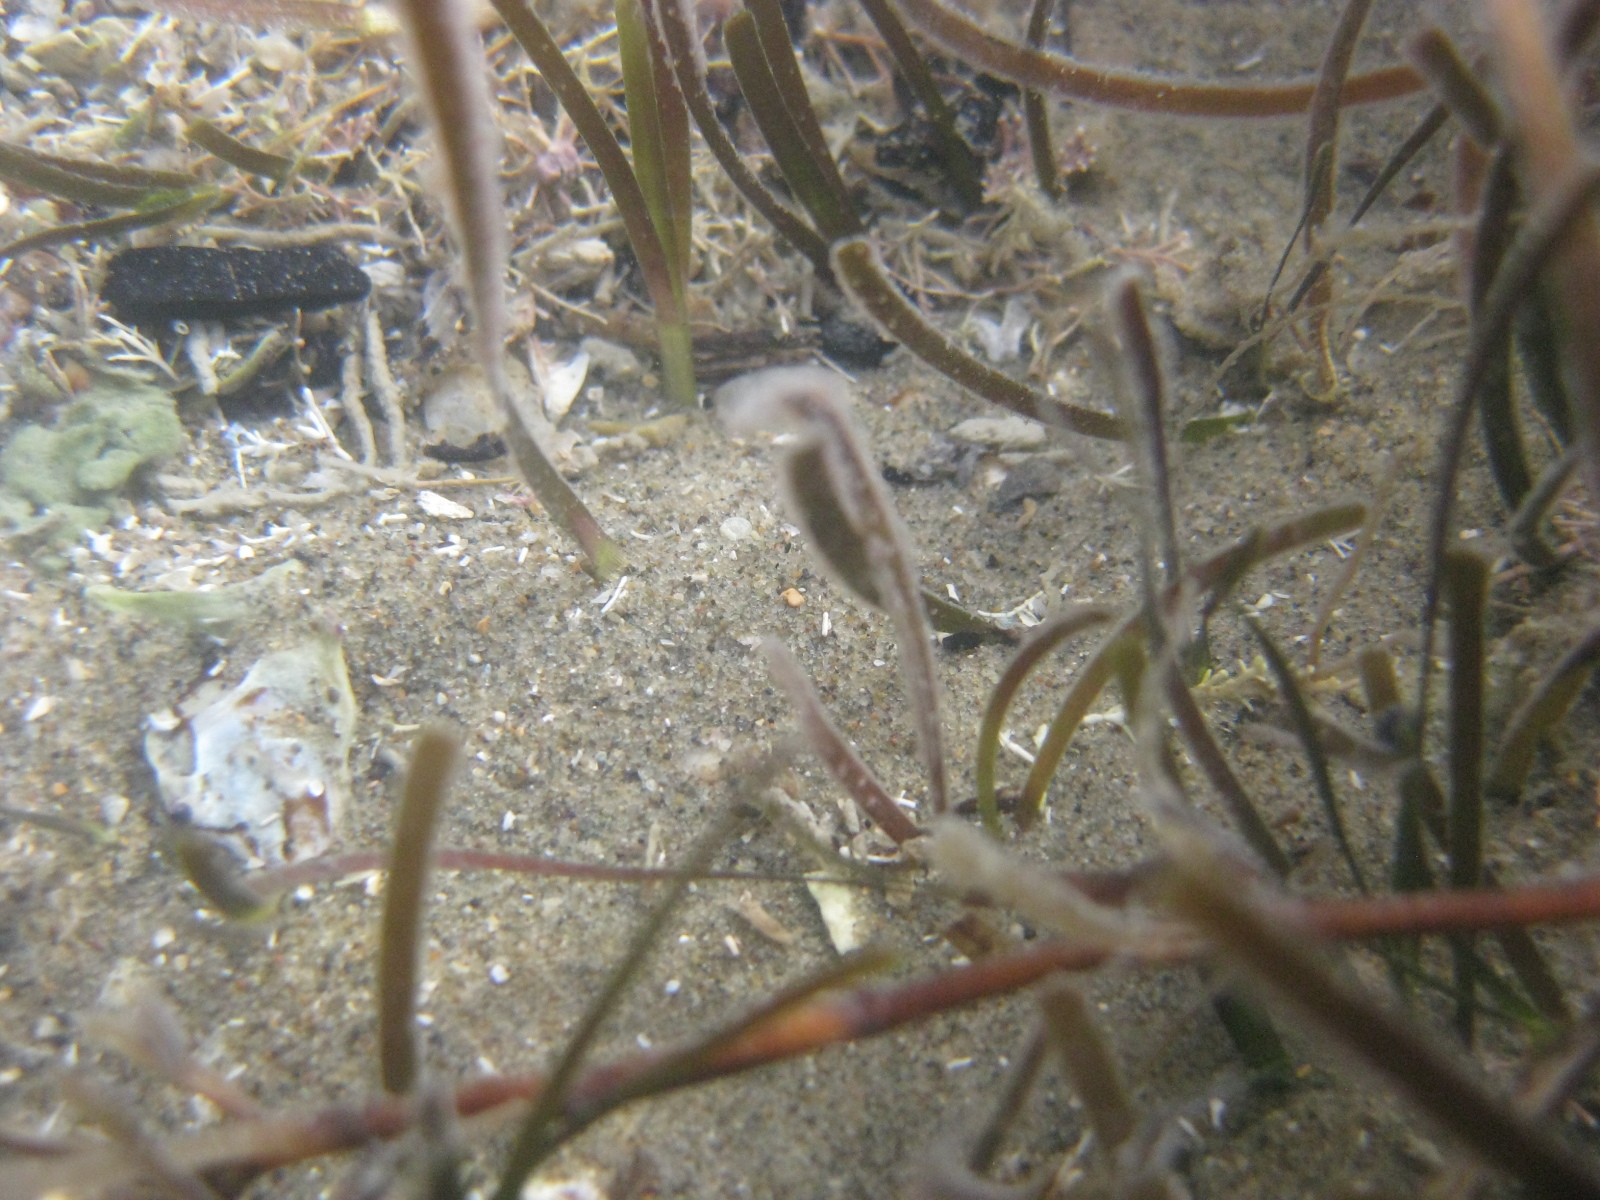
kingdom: Plantae
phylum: Tracheophyta
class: Liliopsida
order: Alismatales
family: Zosteraceae
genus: Zostera
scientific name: Zostera novazelandica
